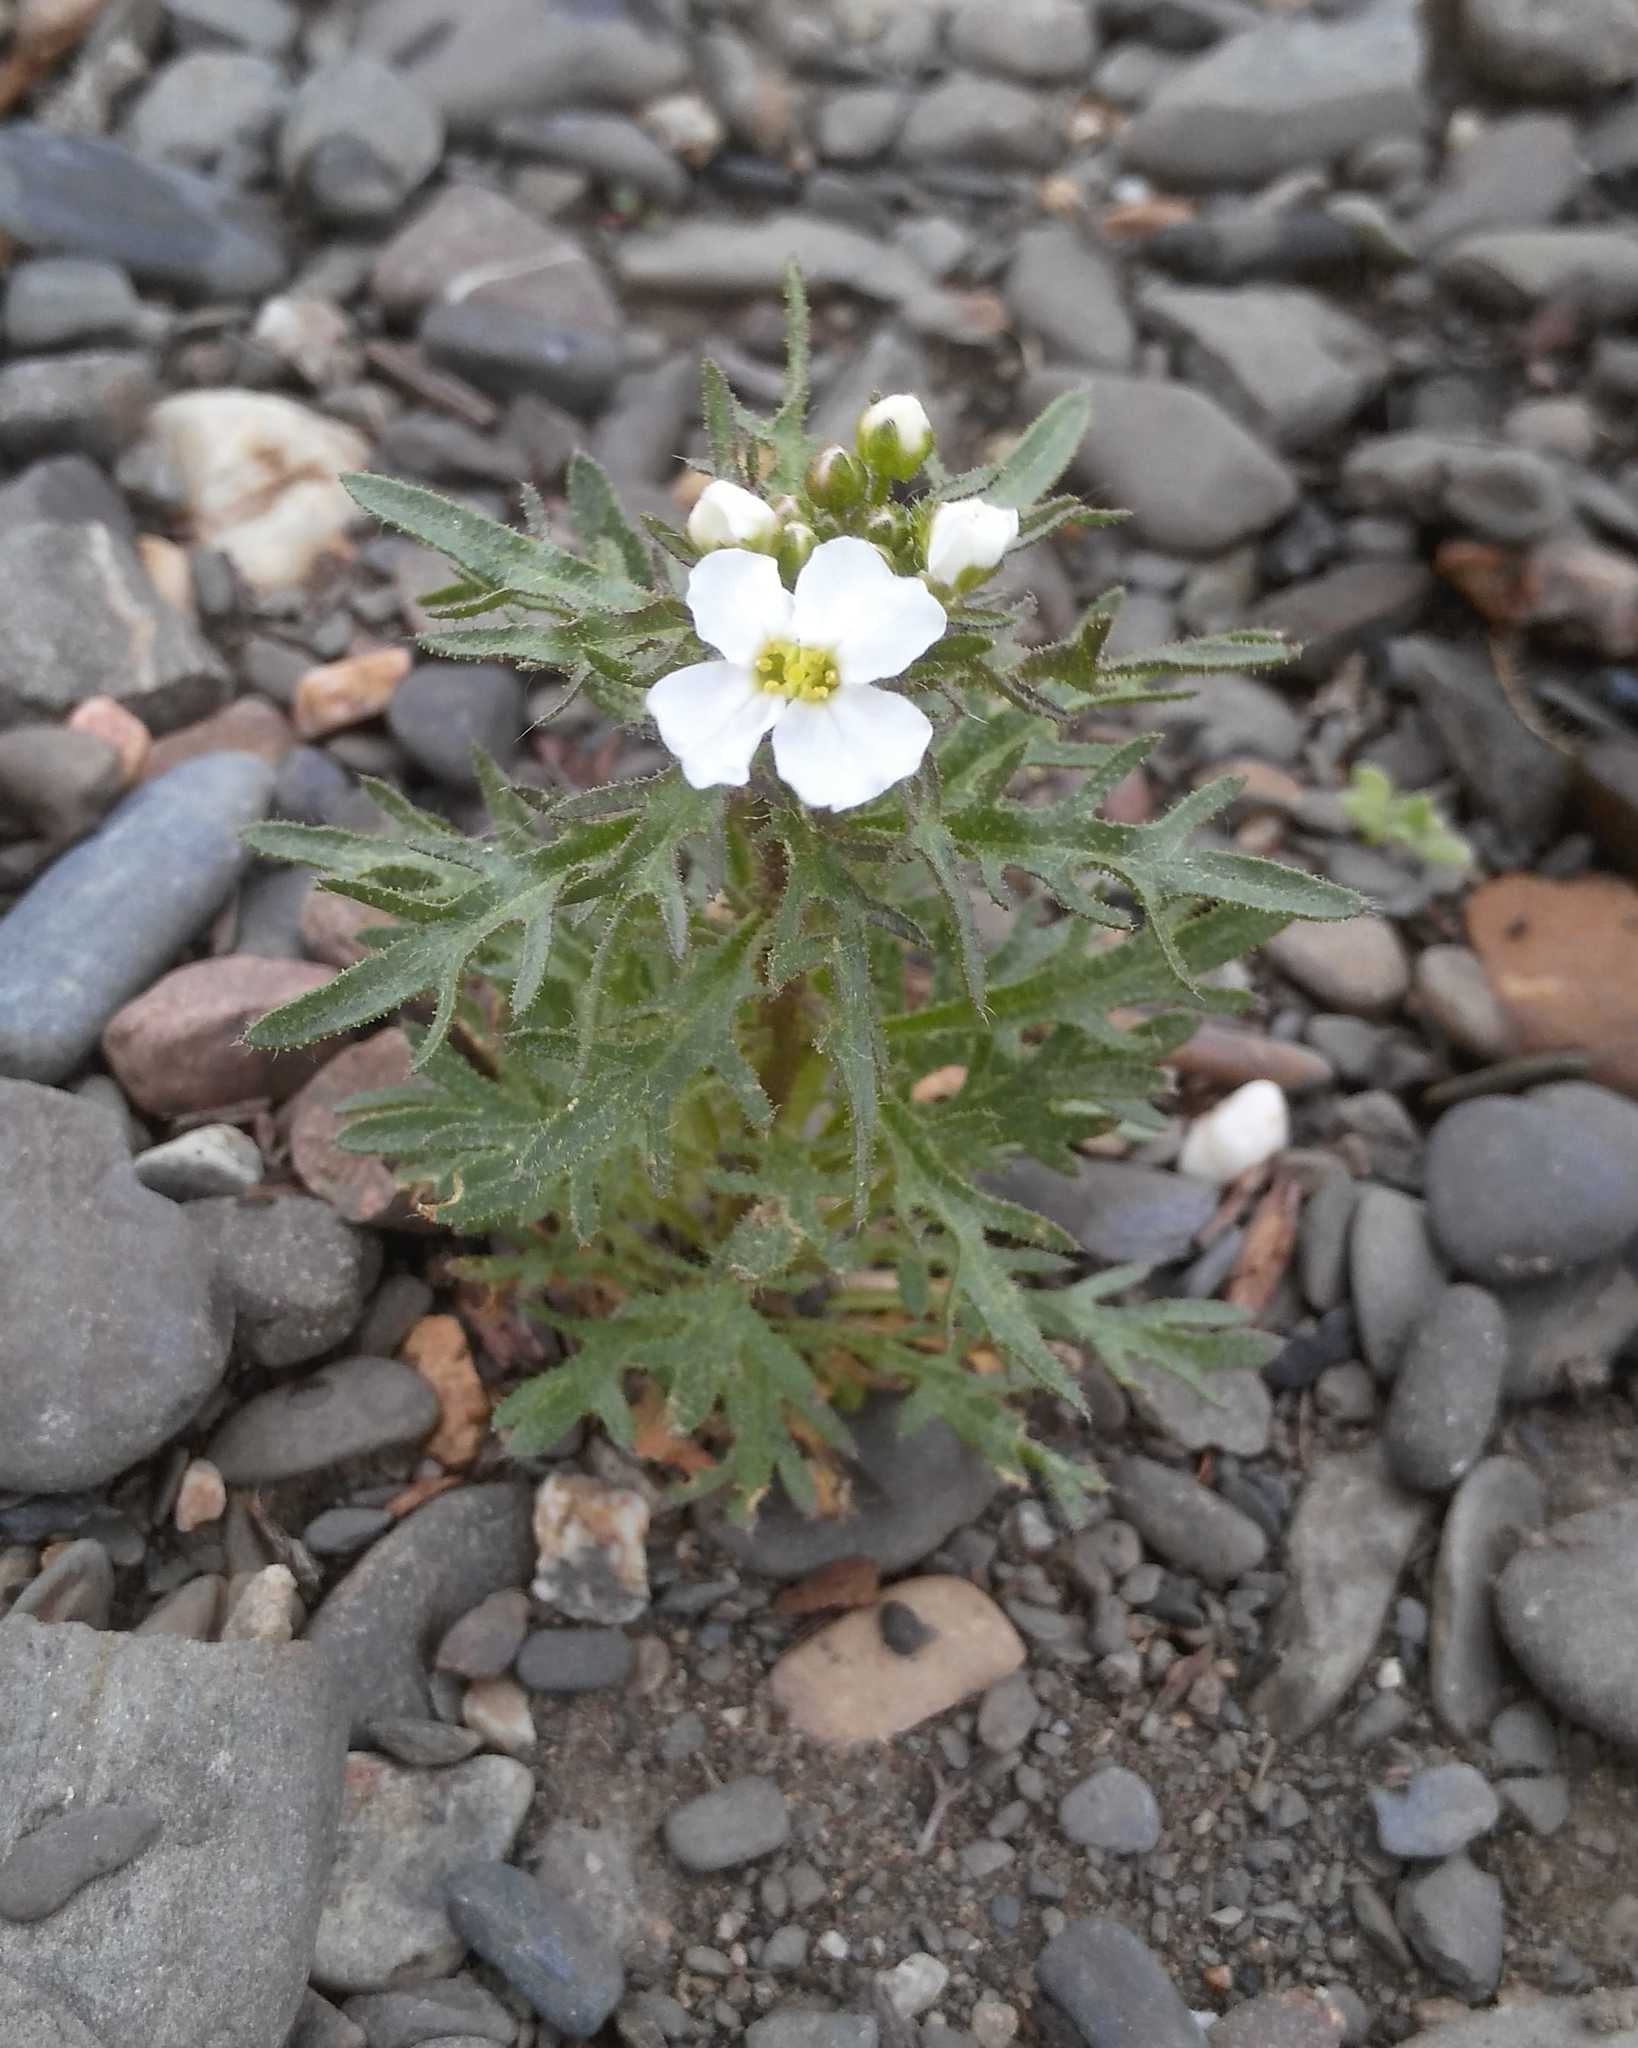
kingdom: Plantae
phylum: Tracheophyta
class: Magnoliopsida
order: Brassicales
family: Brassicaceae
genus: Dontostemon
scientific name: Dontostemon pinnatifidus
